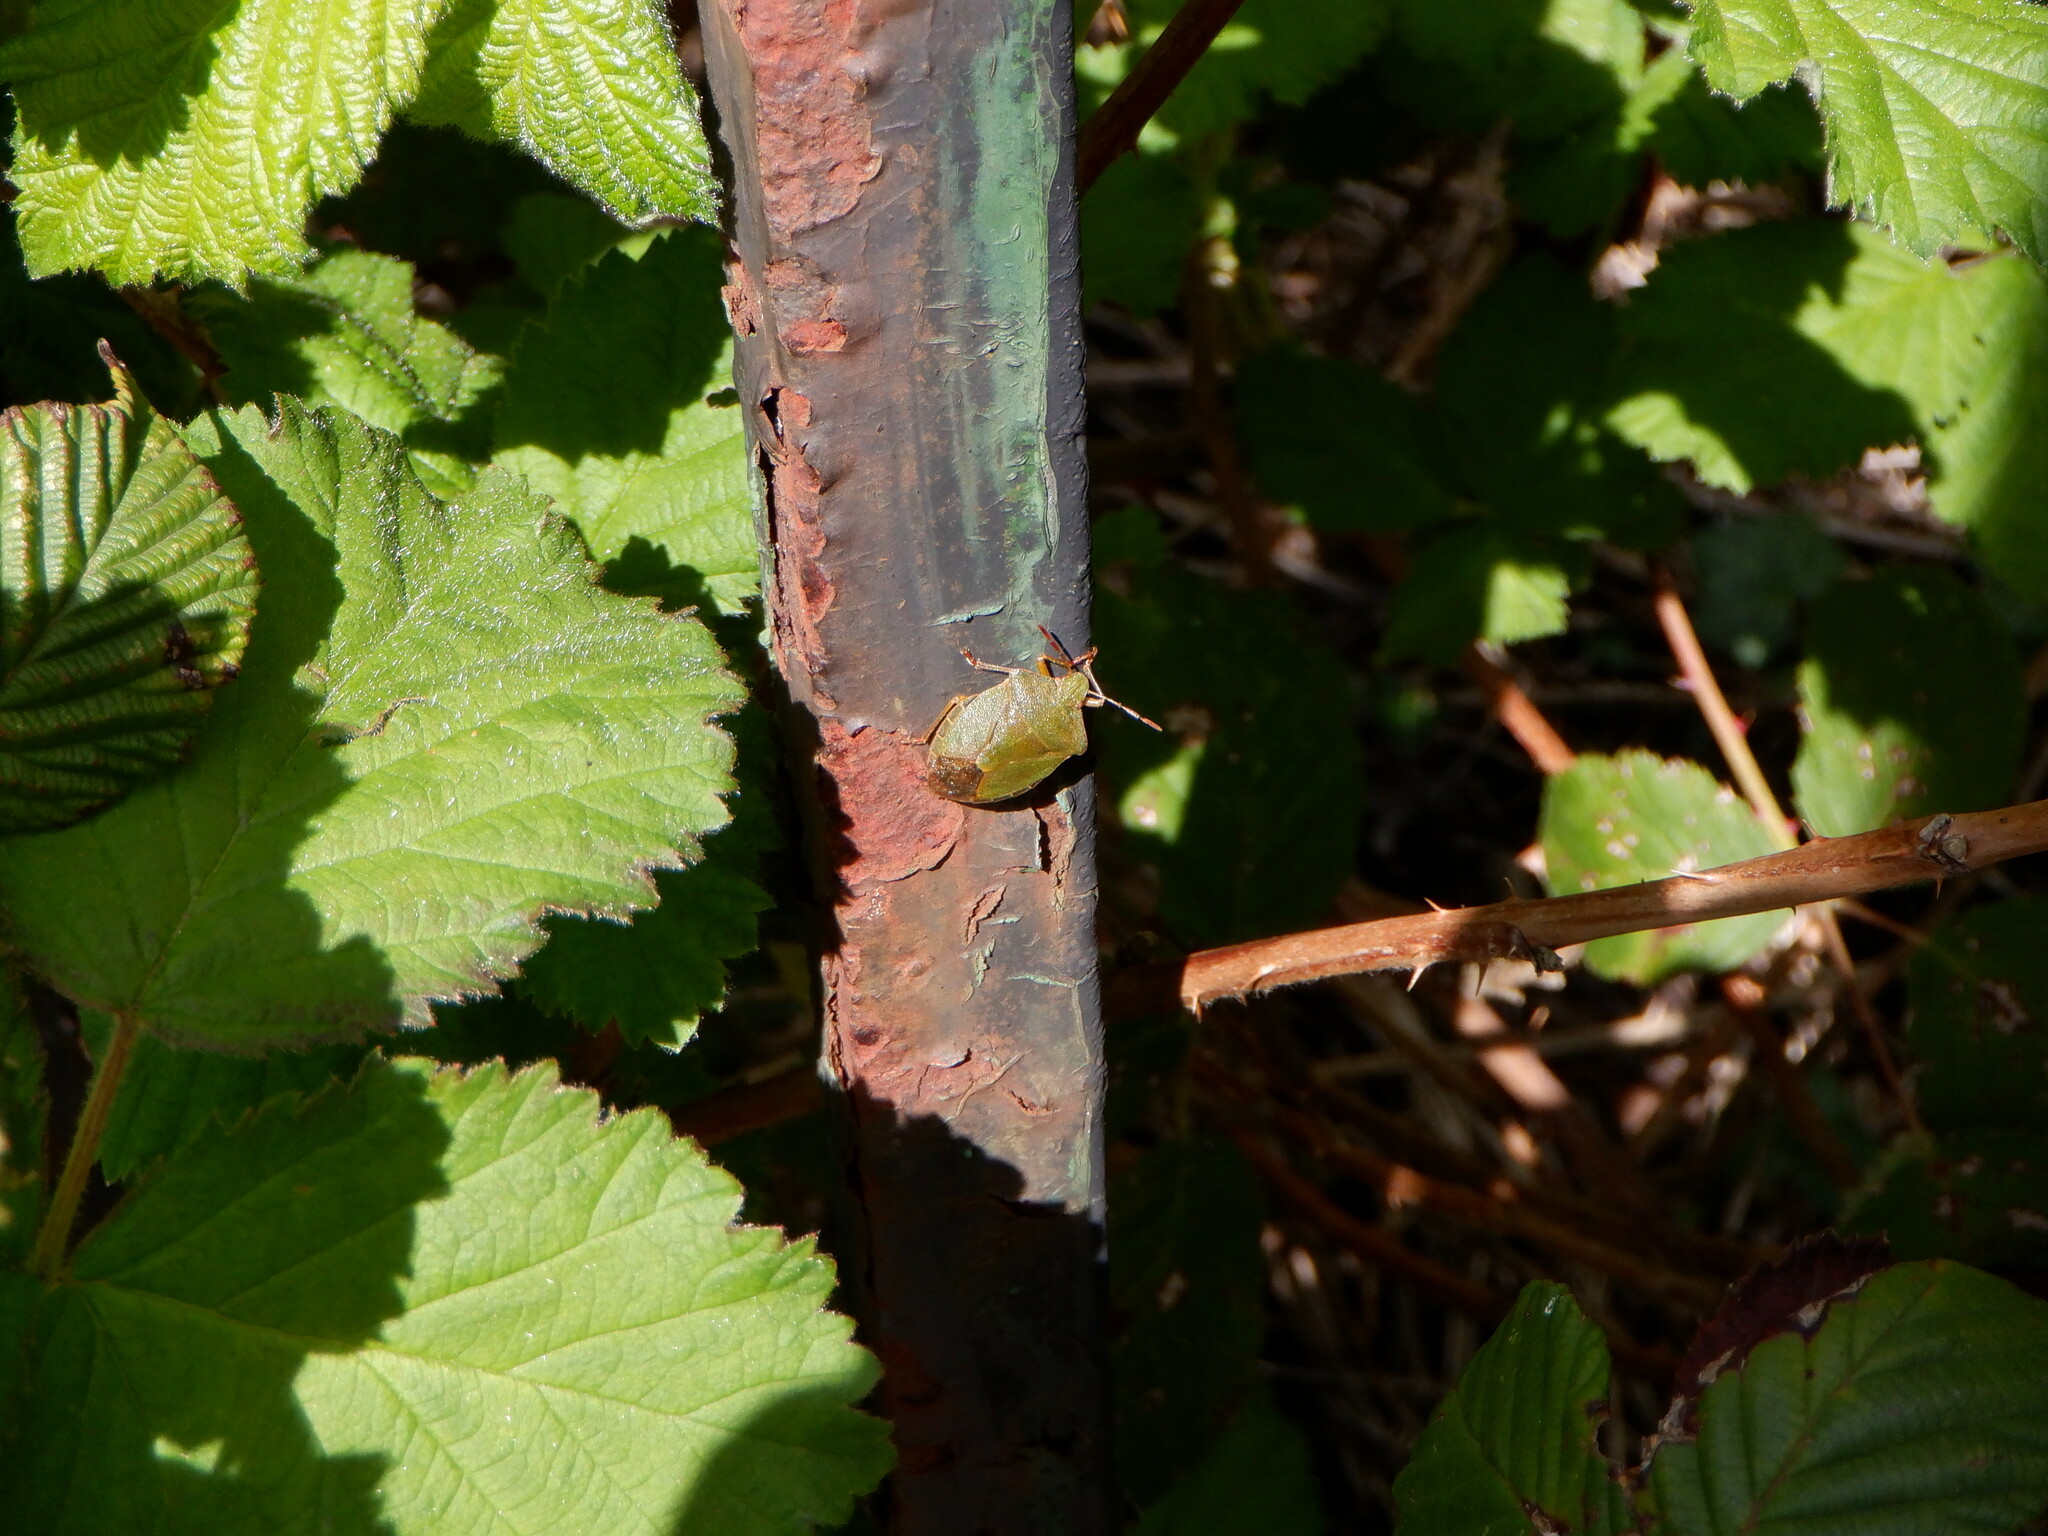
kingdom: Animalia
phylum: Arthropoda
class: Insecta
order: Hemiptera
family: Pentatomidae
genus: Palomena
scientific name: Palomena prasina
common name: Green shieldbug
